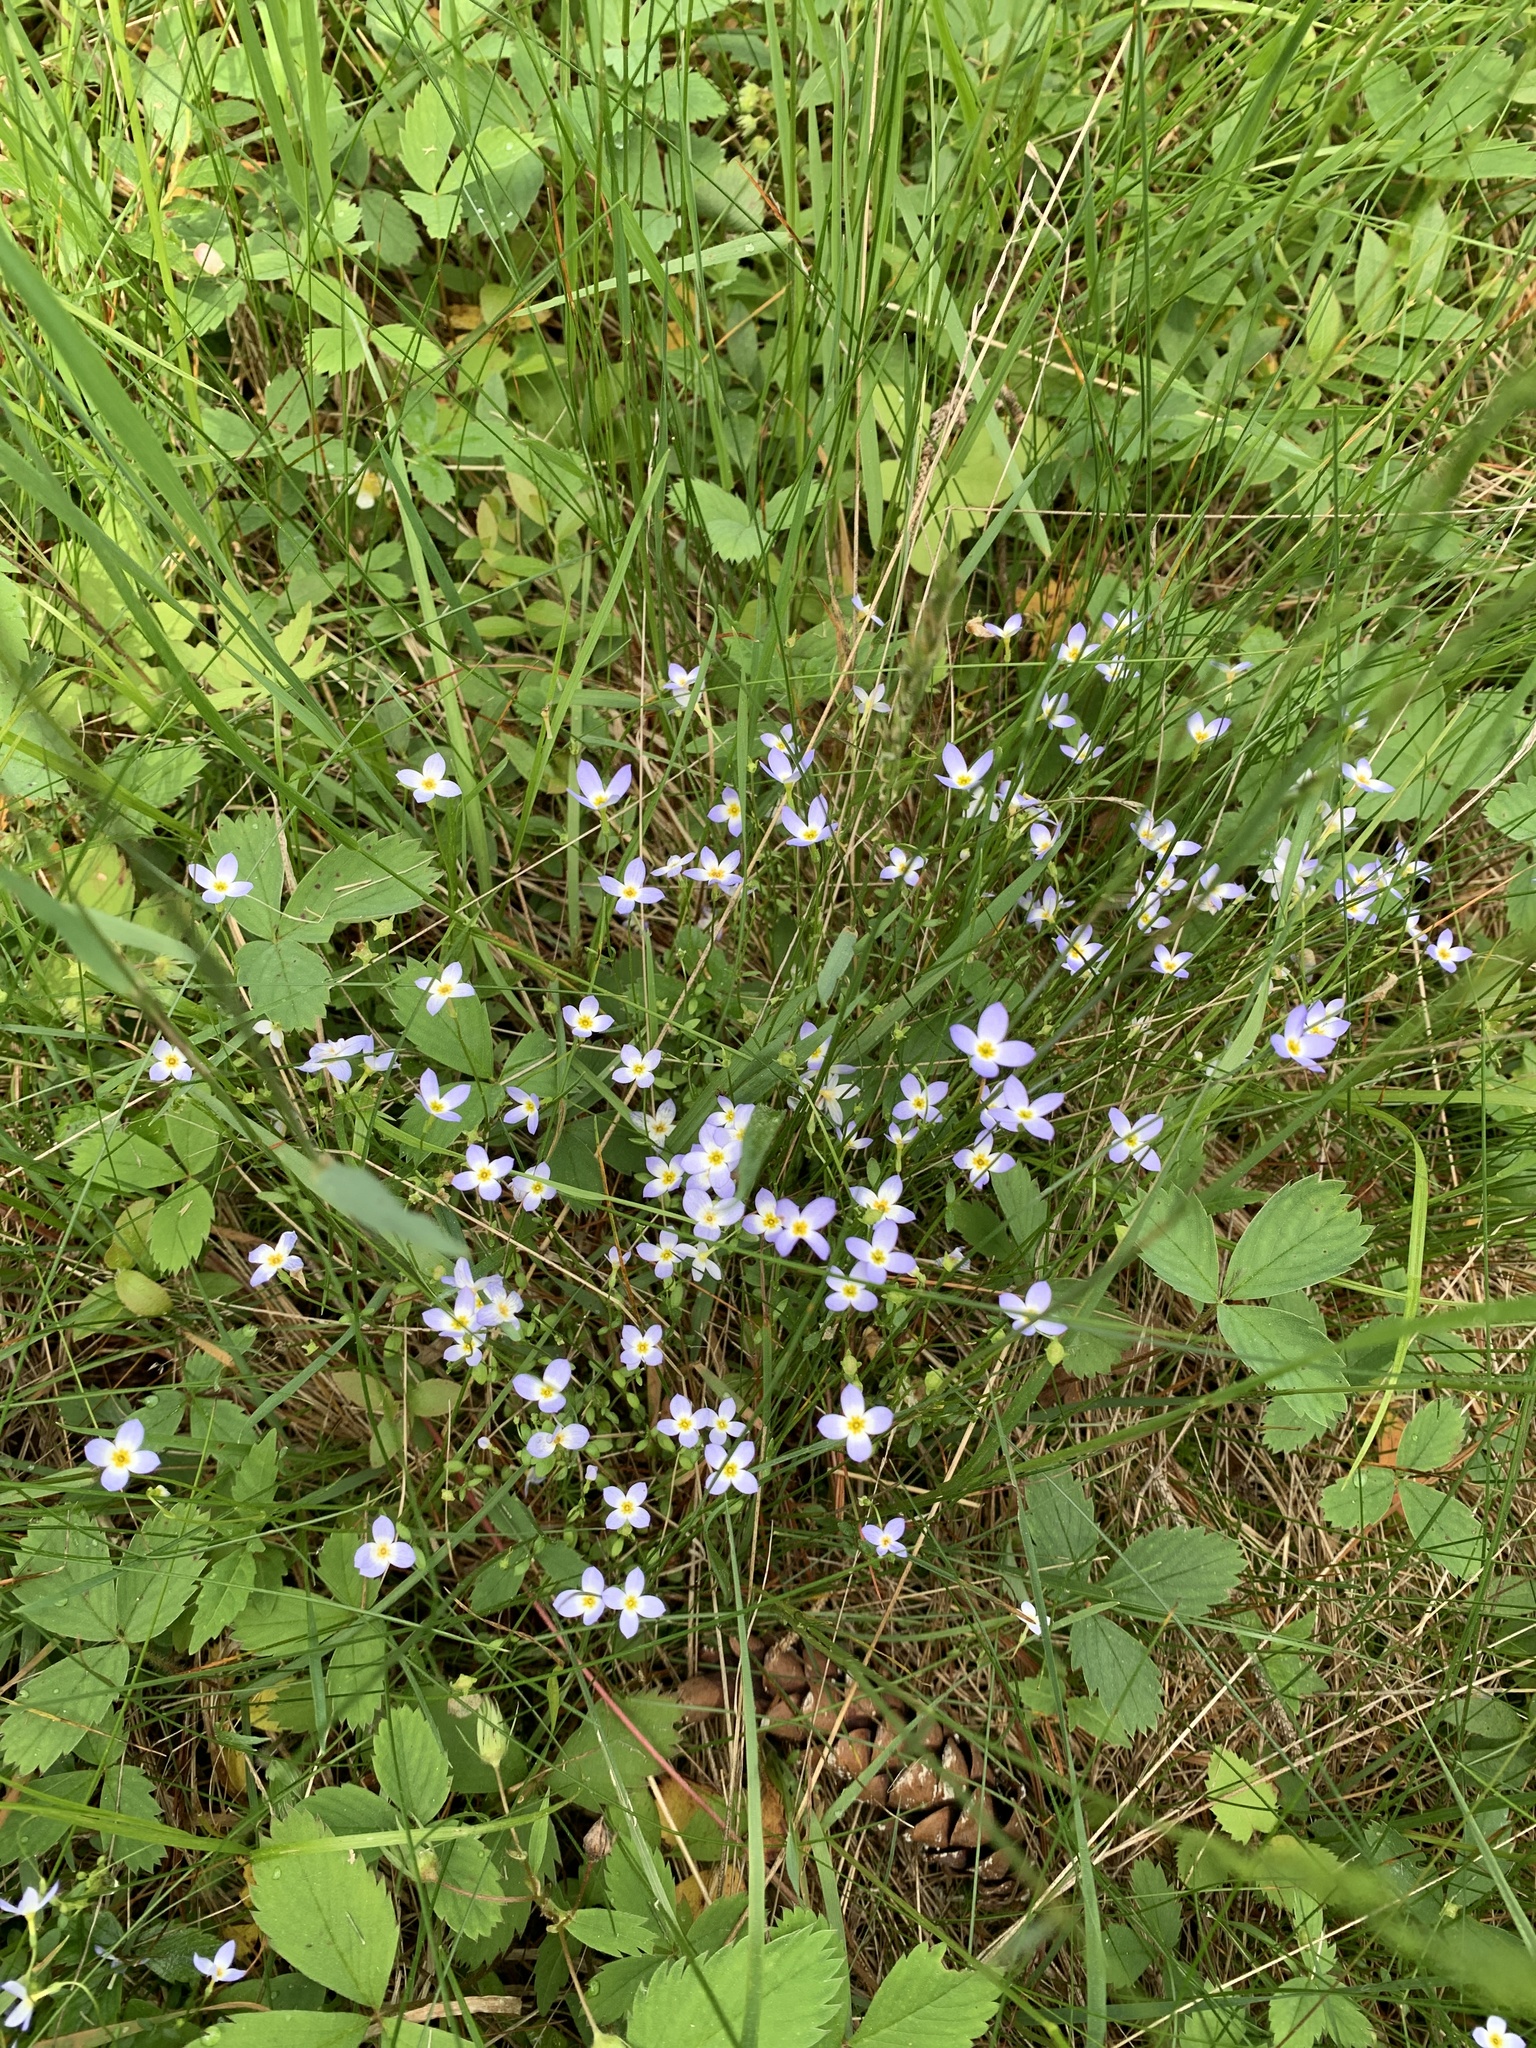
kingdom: Plantae
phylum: Tracheophyta
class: Magnoliopsida
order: Gentianales
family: Rubiaceae
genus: Houstonia
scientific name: Houstonia caerulea
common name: Bluets
